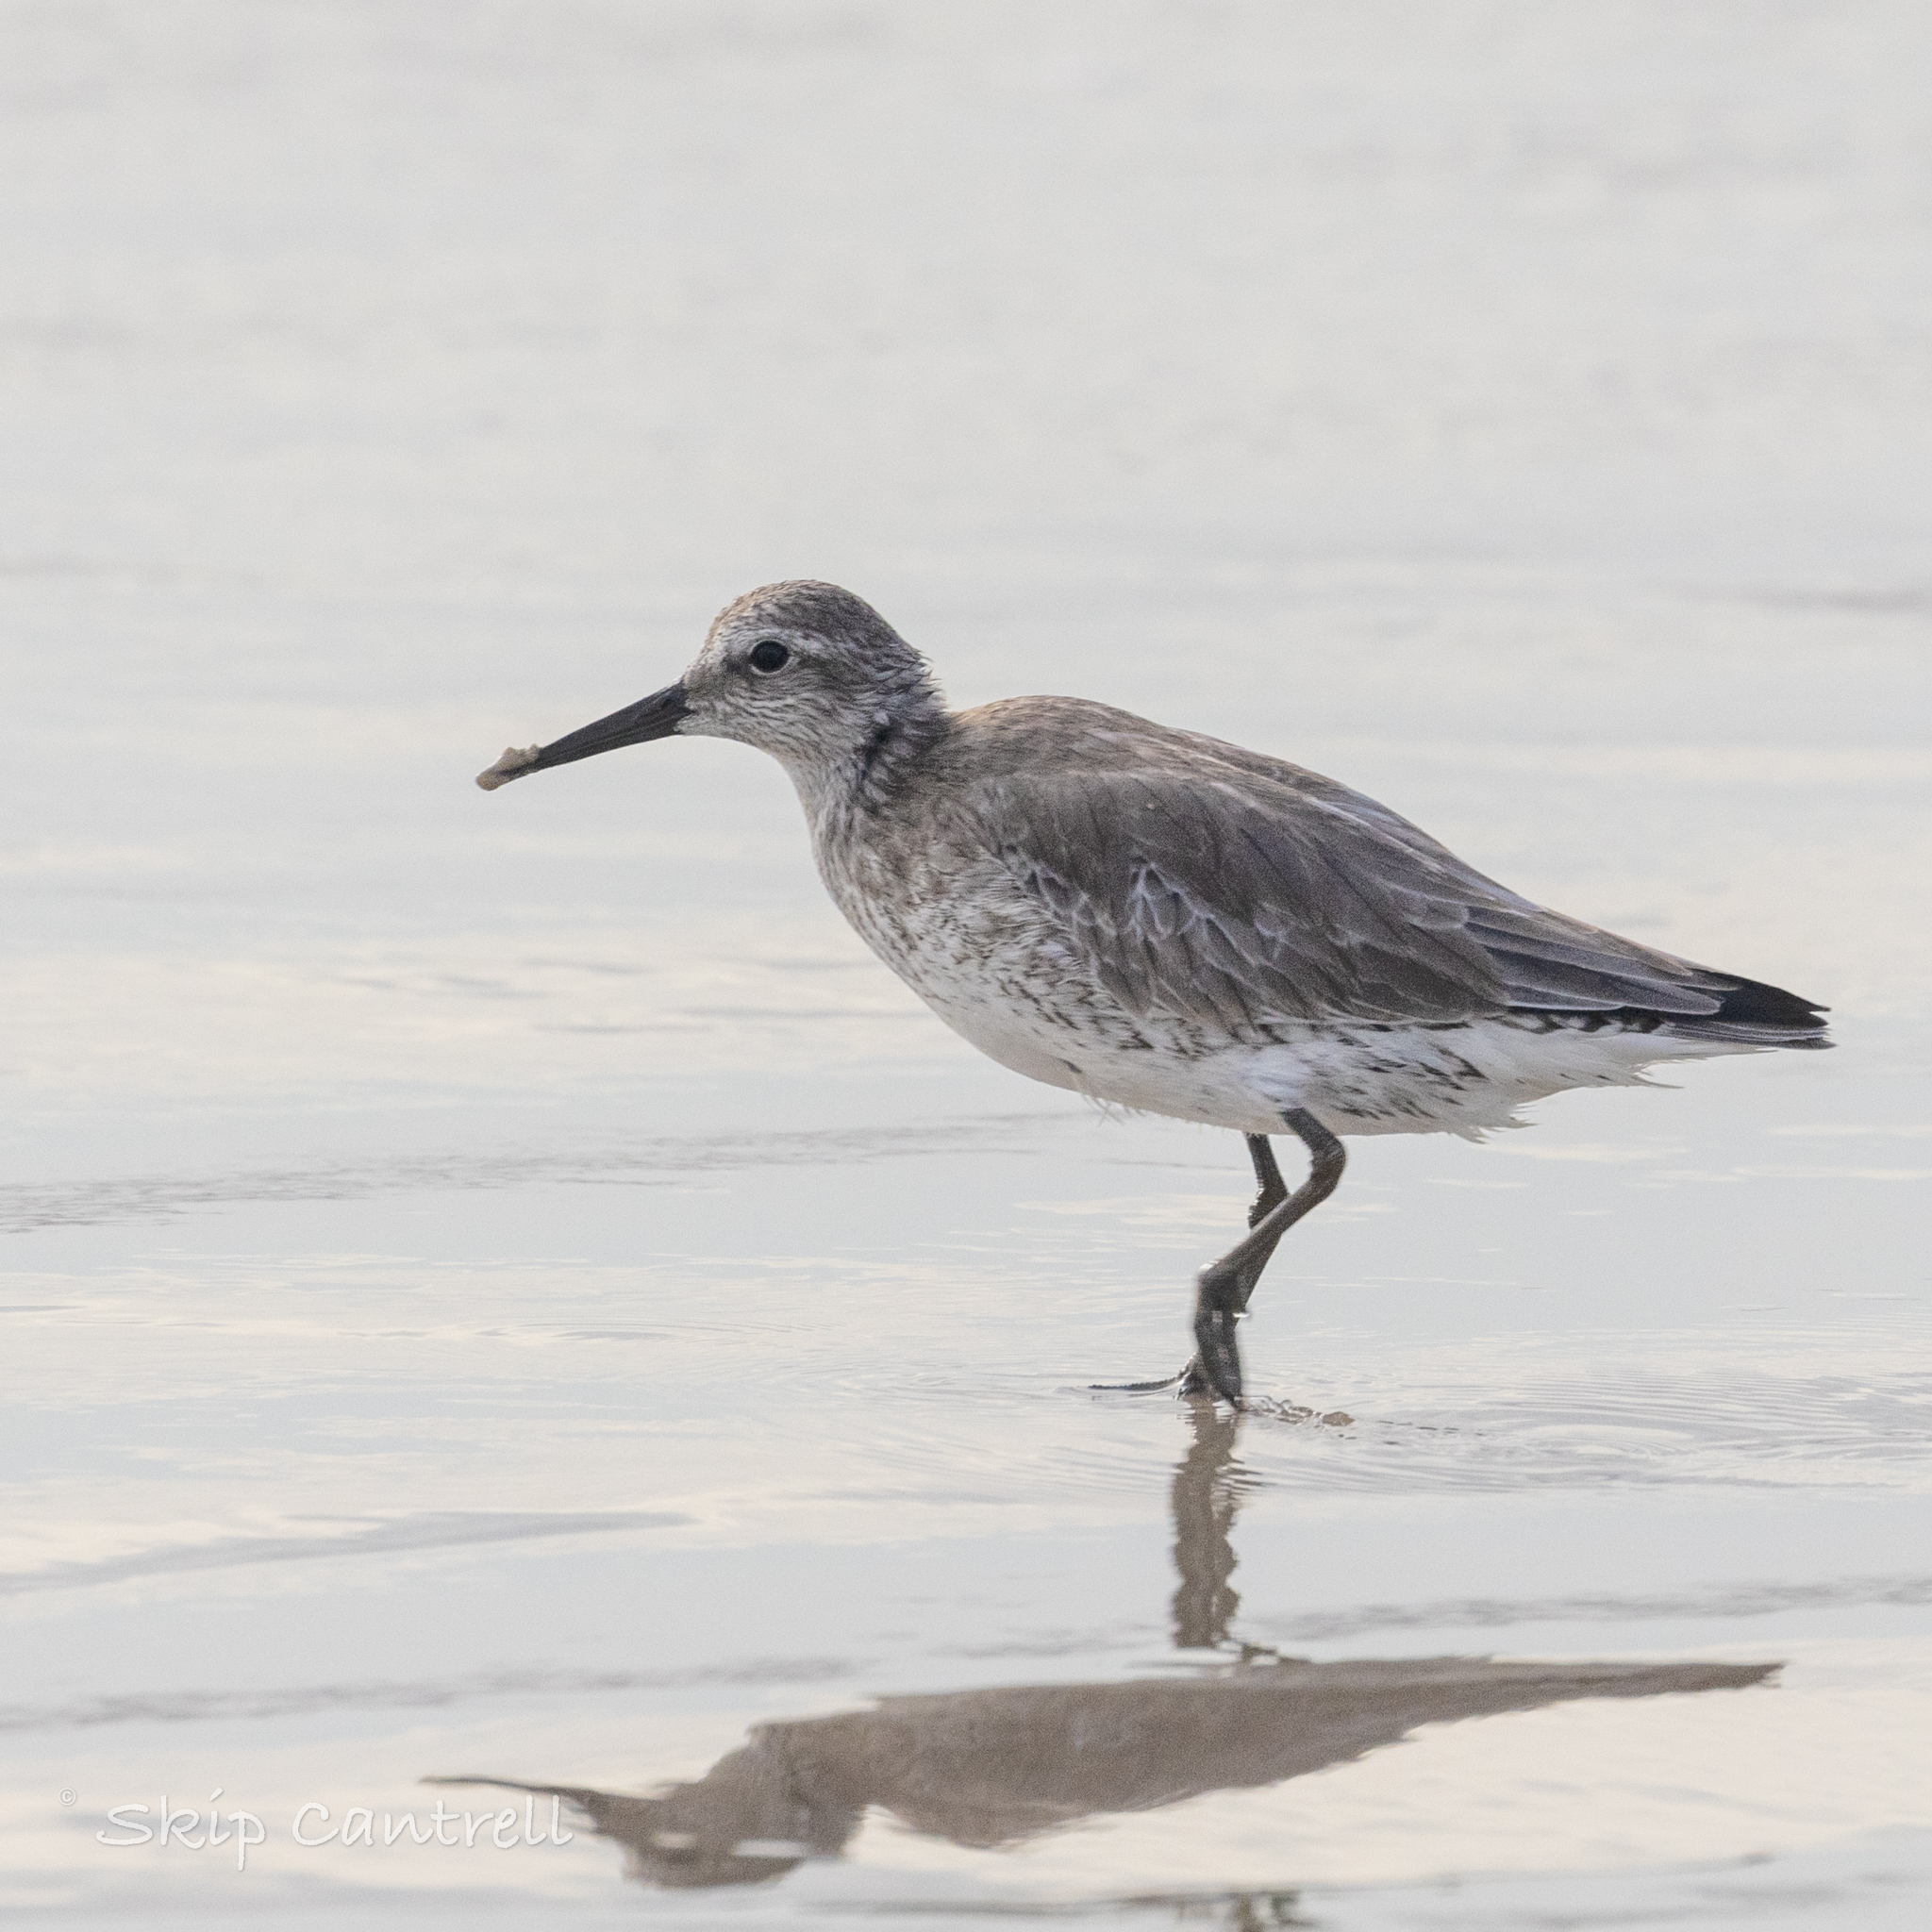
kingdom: Animalia
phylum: Chordata
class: Aves
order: Charadriiformes
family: Scolopacidae
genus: Calidris
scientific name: Calidris canutus
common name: Red knot
